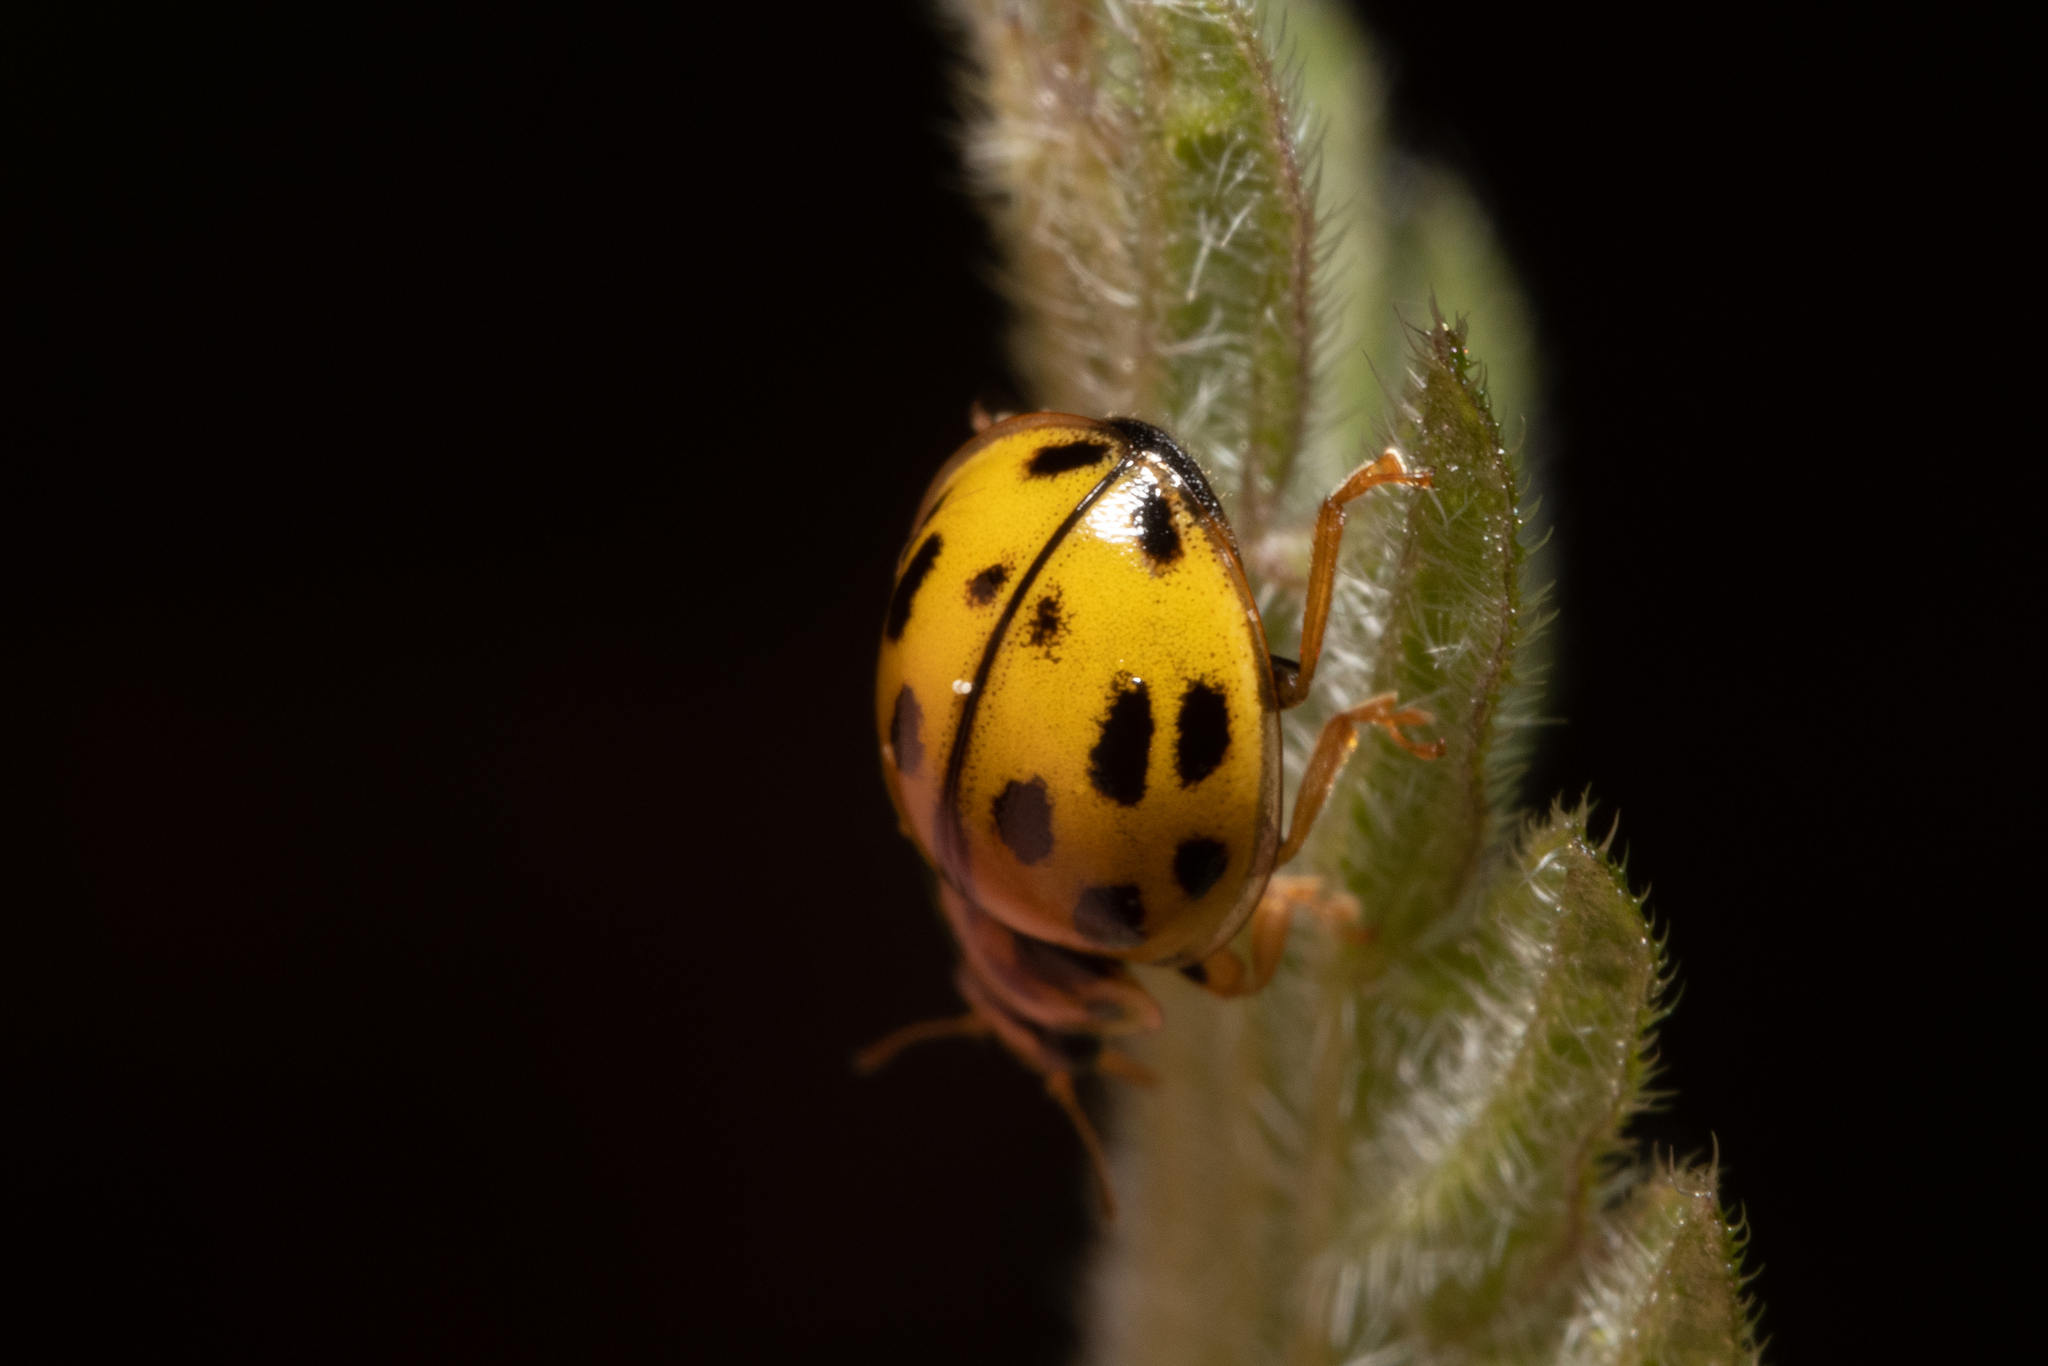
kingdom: Animalia
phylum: Arthropoda
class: Insecta
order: Coleoptera
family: Coccinellidae
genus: Propylaea
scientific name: Propylaea quatuordecimpunctata
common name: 14-spotted ladybird beetle
